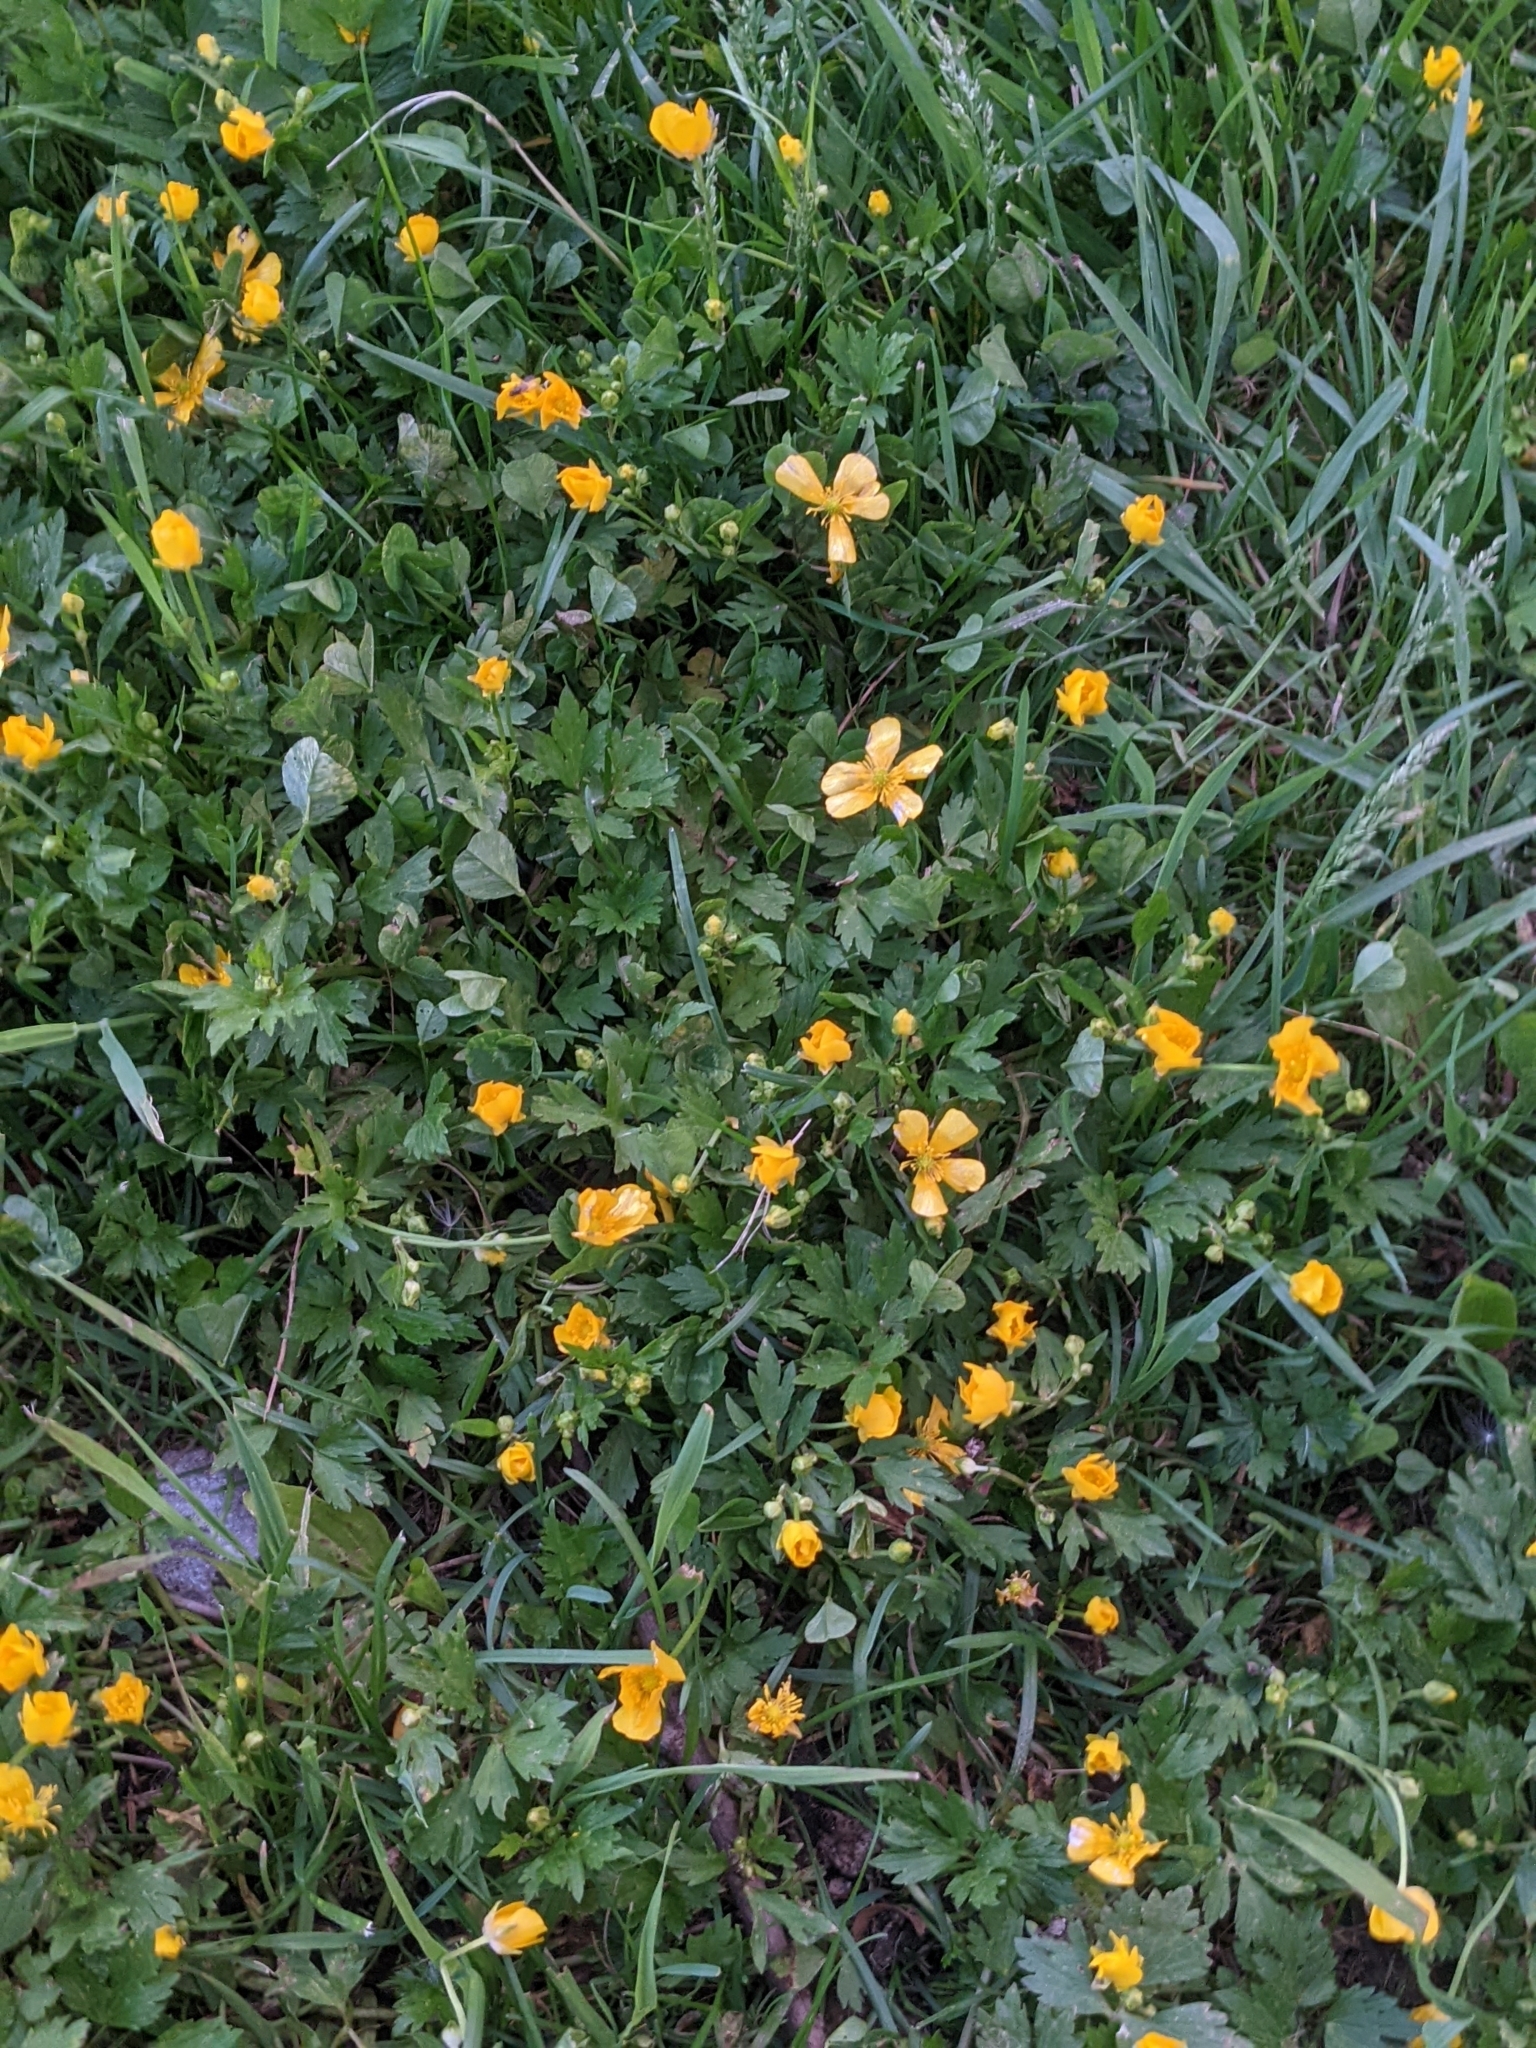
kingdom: Plantae
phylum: Tracheophyta
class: Magnoliopsida
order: Ranunculales
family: Ranunculaceae
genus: Ranunculus
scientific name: Ranunculus repens
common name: Creeping buttercup
